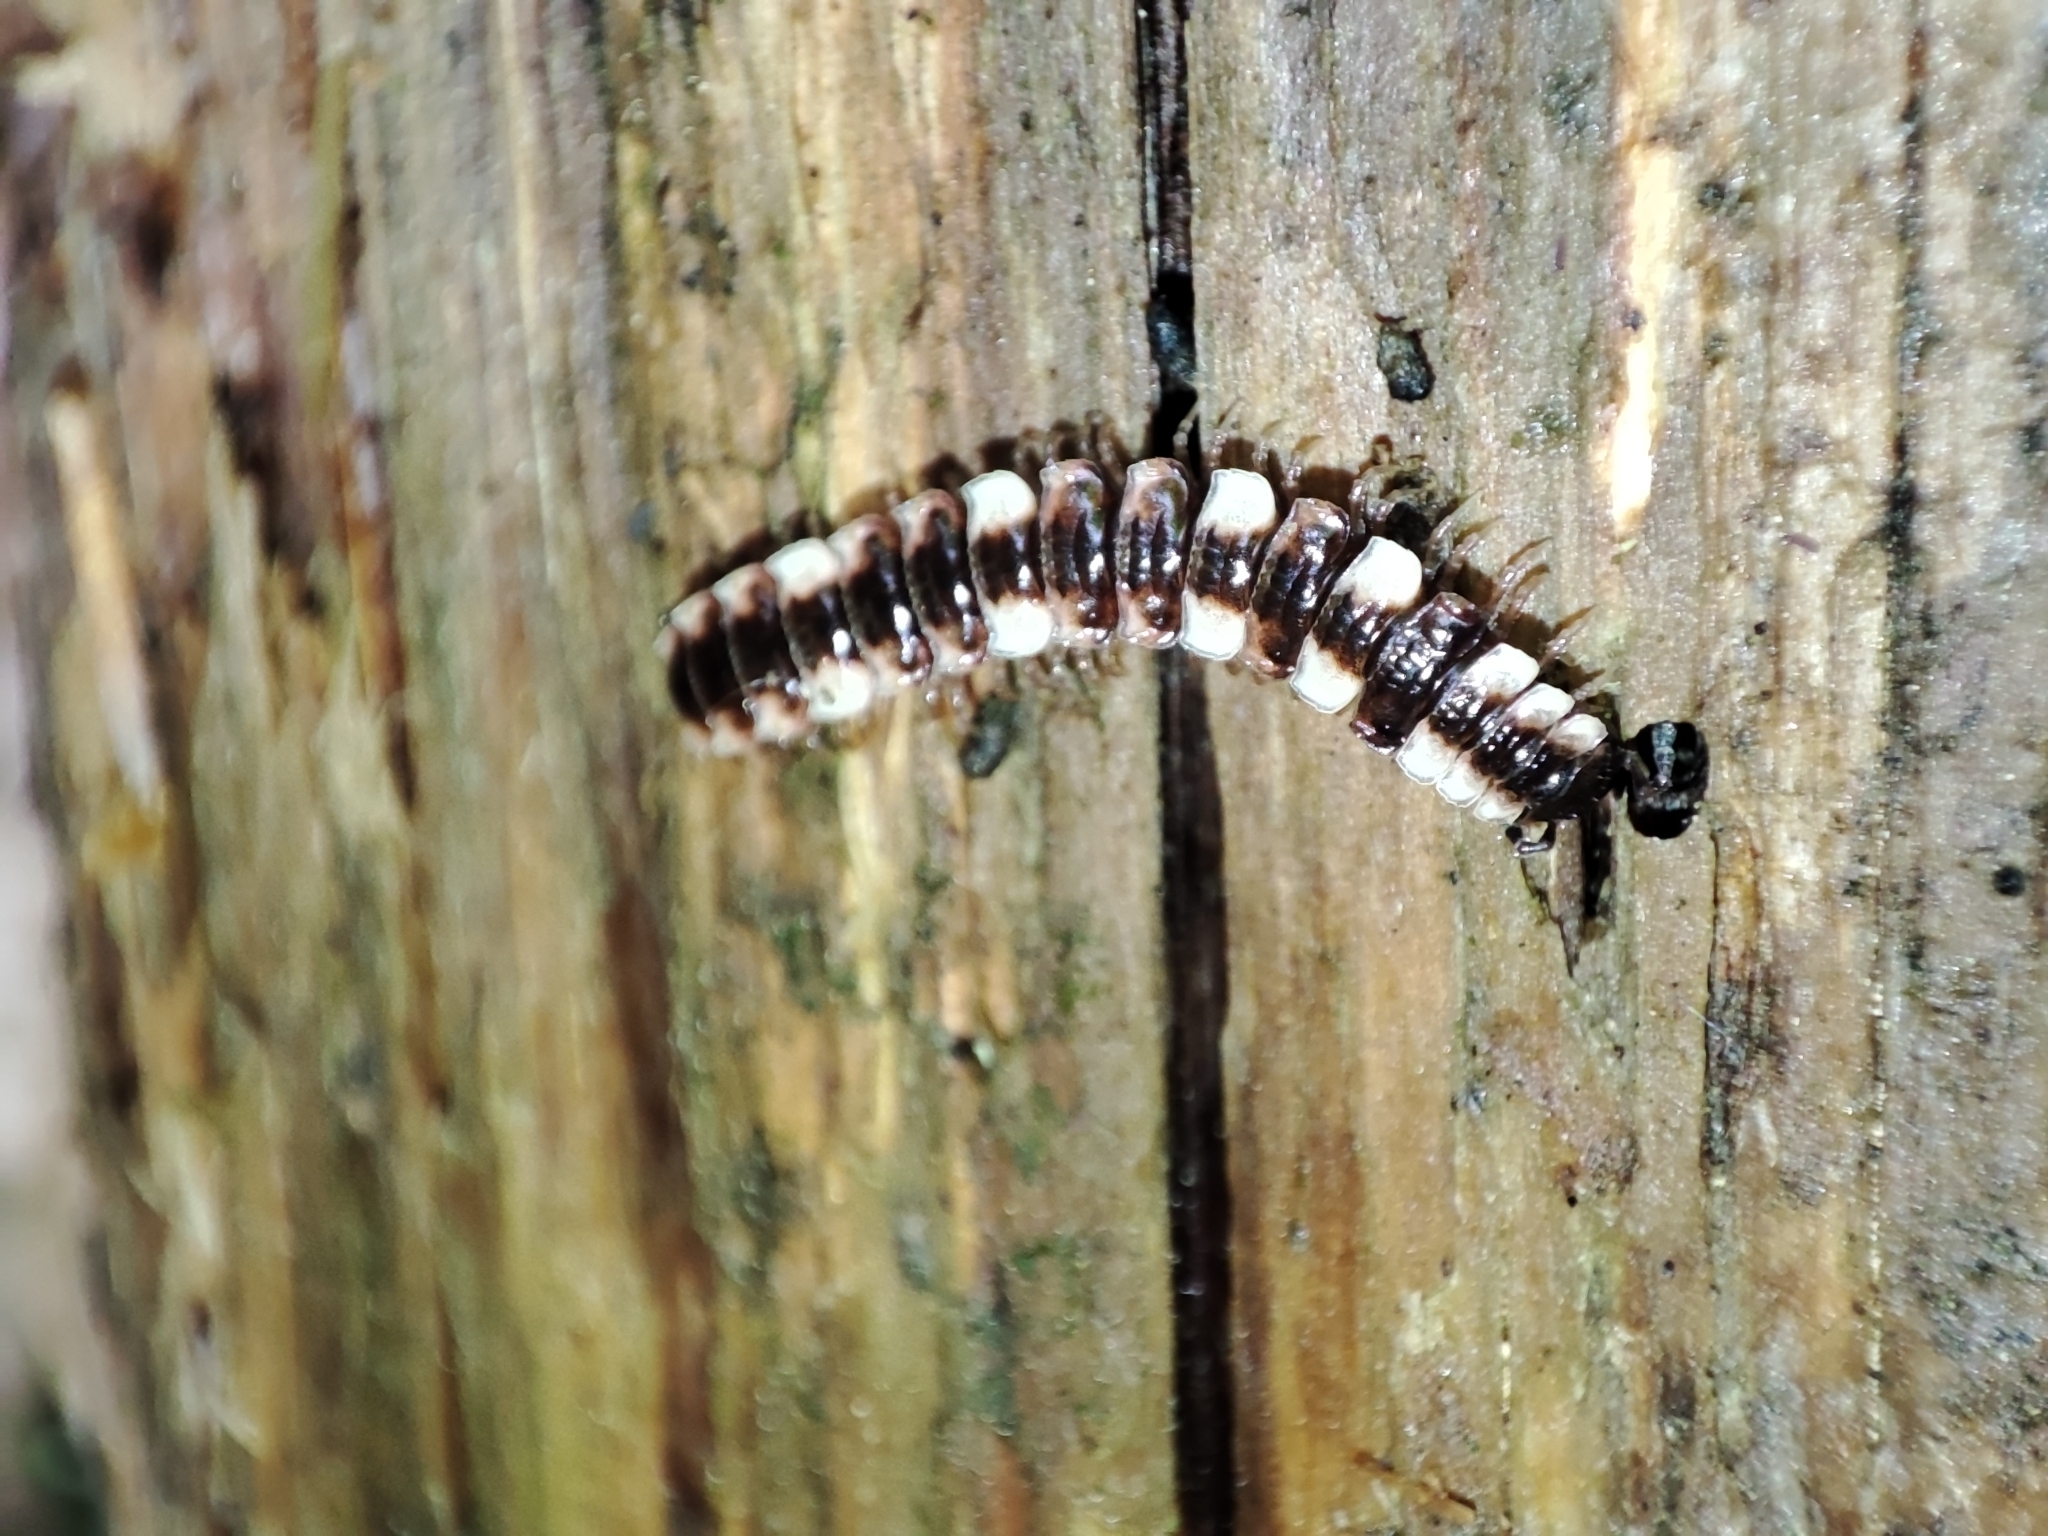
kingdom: Animalia
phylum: Arthropoda
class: Diplopoda
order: Polydesmida
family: Polydesmidae
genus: Polydesmus
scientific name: Polydesmus polonicus
